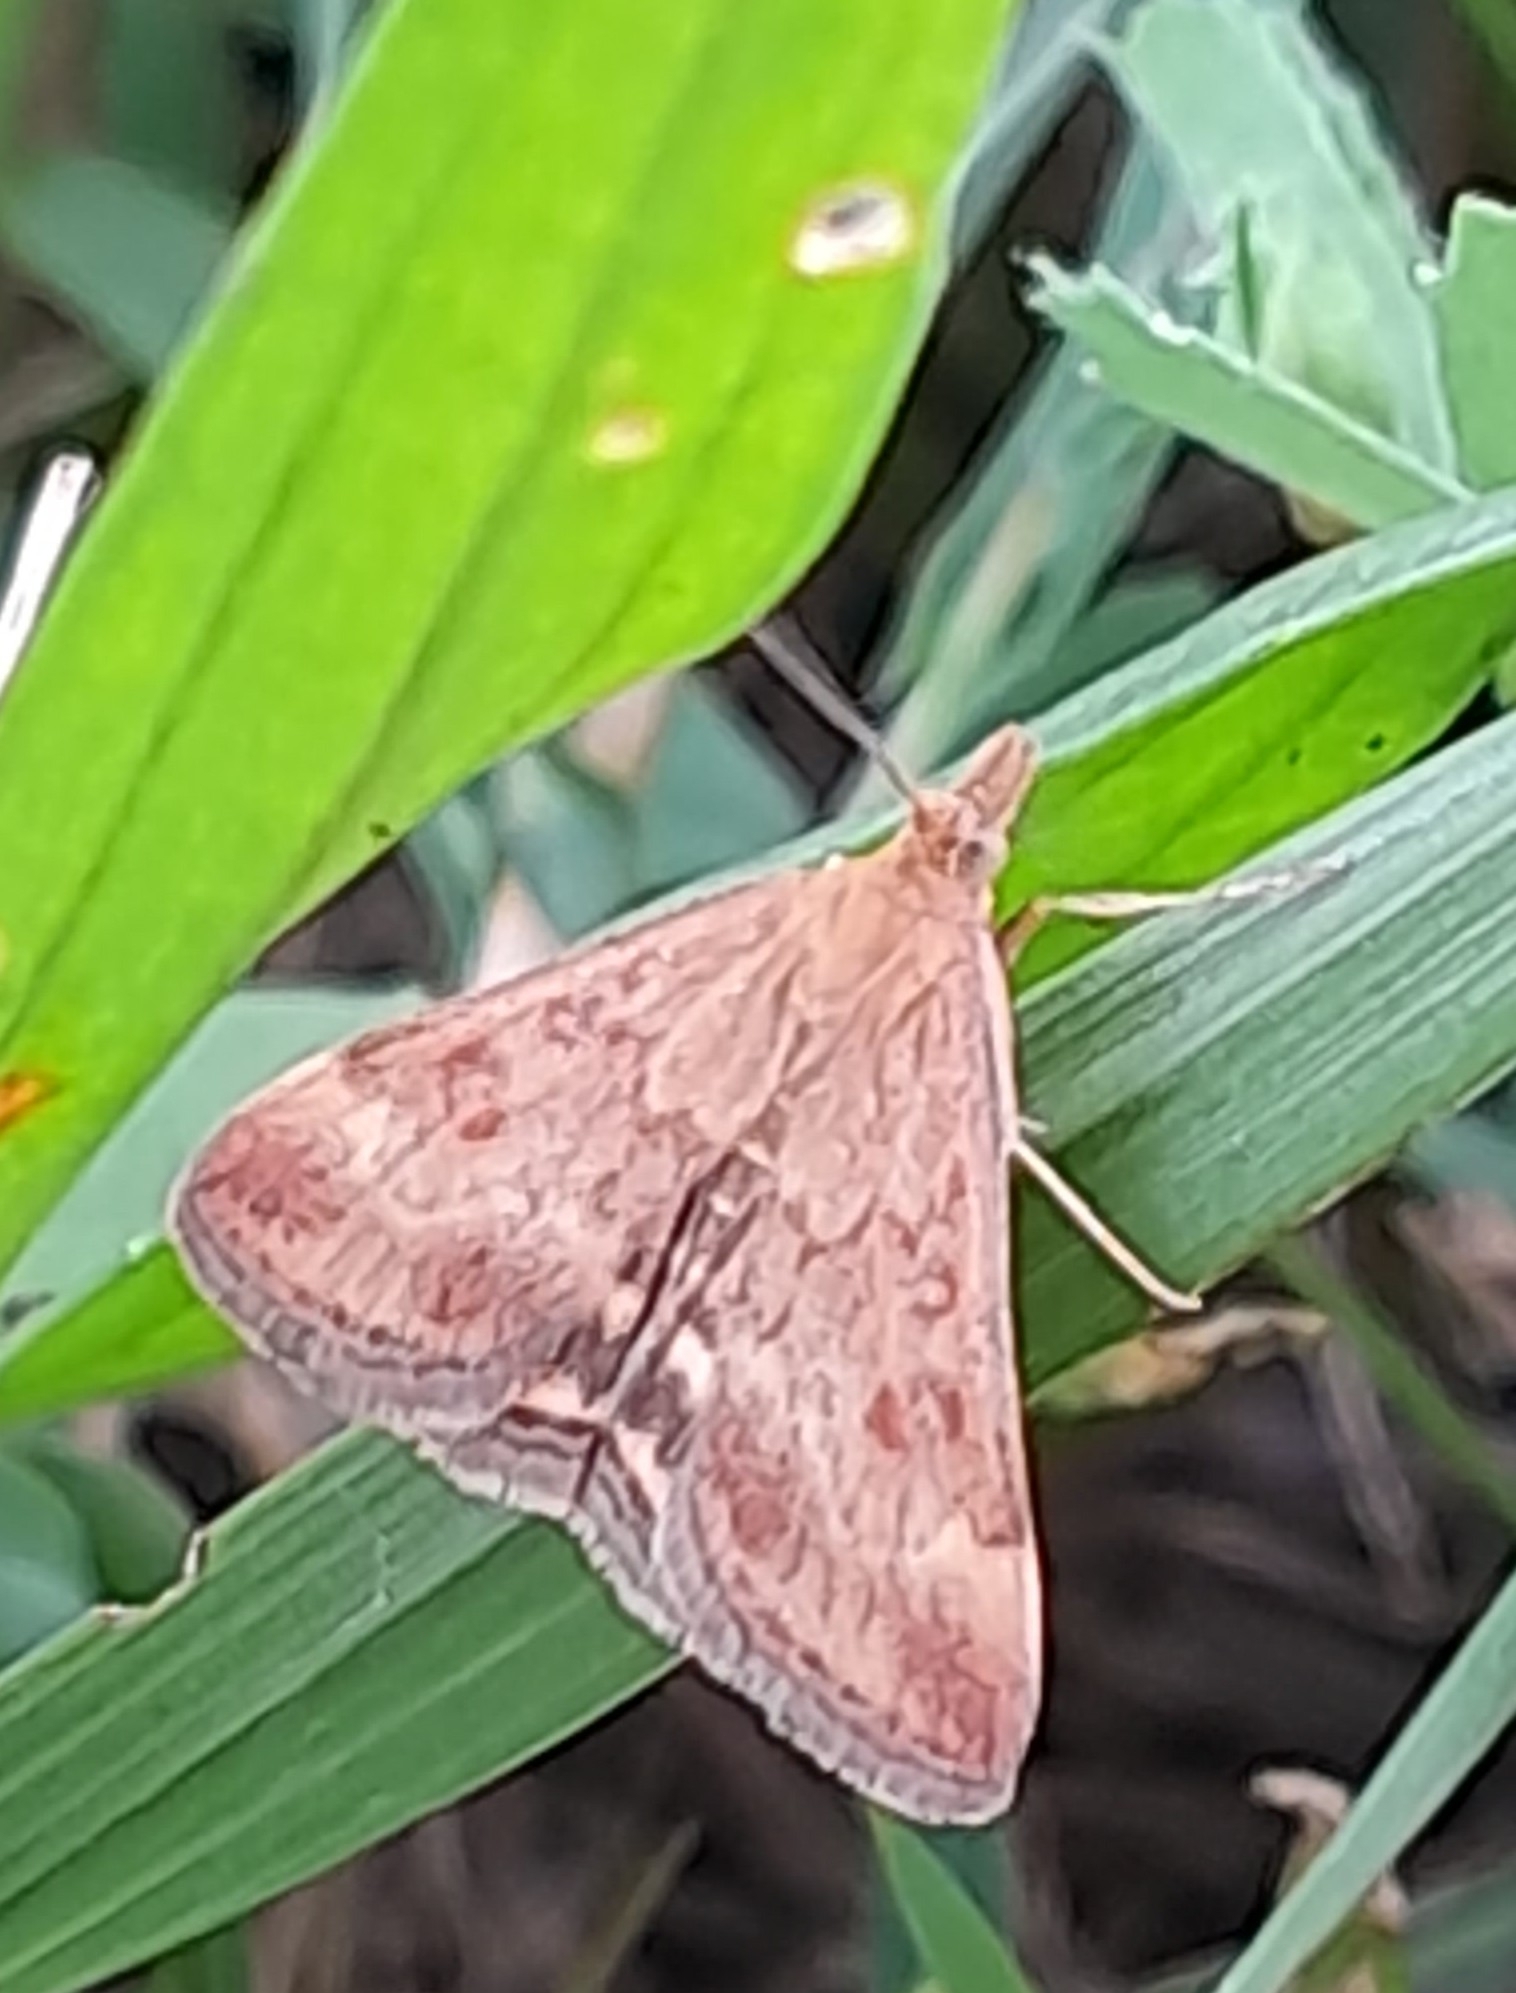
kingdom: Animalia
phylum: Arthropoda
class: Insecta
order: Lepidoptera
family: Crambidae
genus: Pyrausta
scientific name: Pyrausta despicata
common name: Straw-barred pearl
